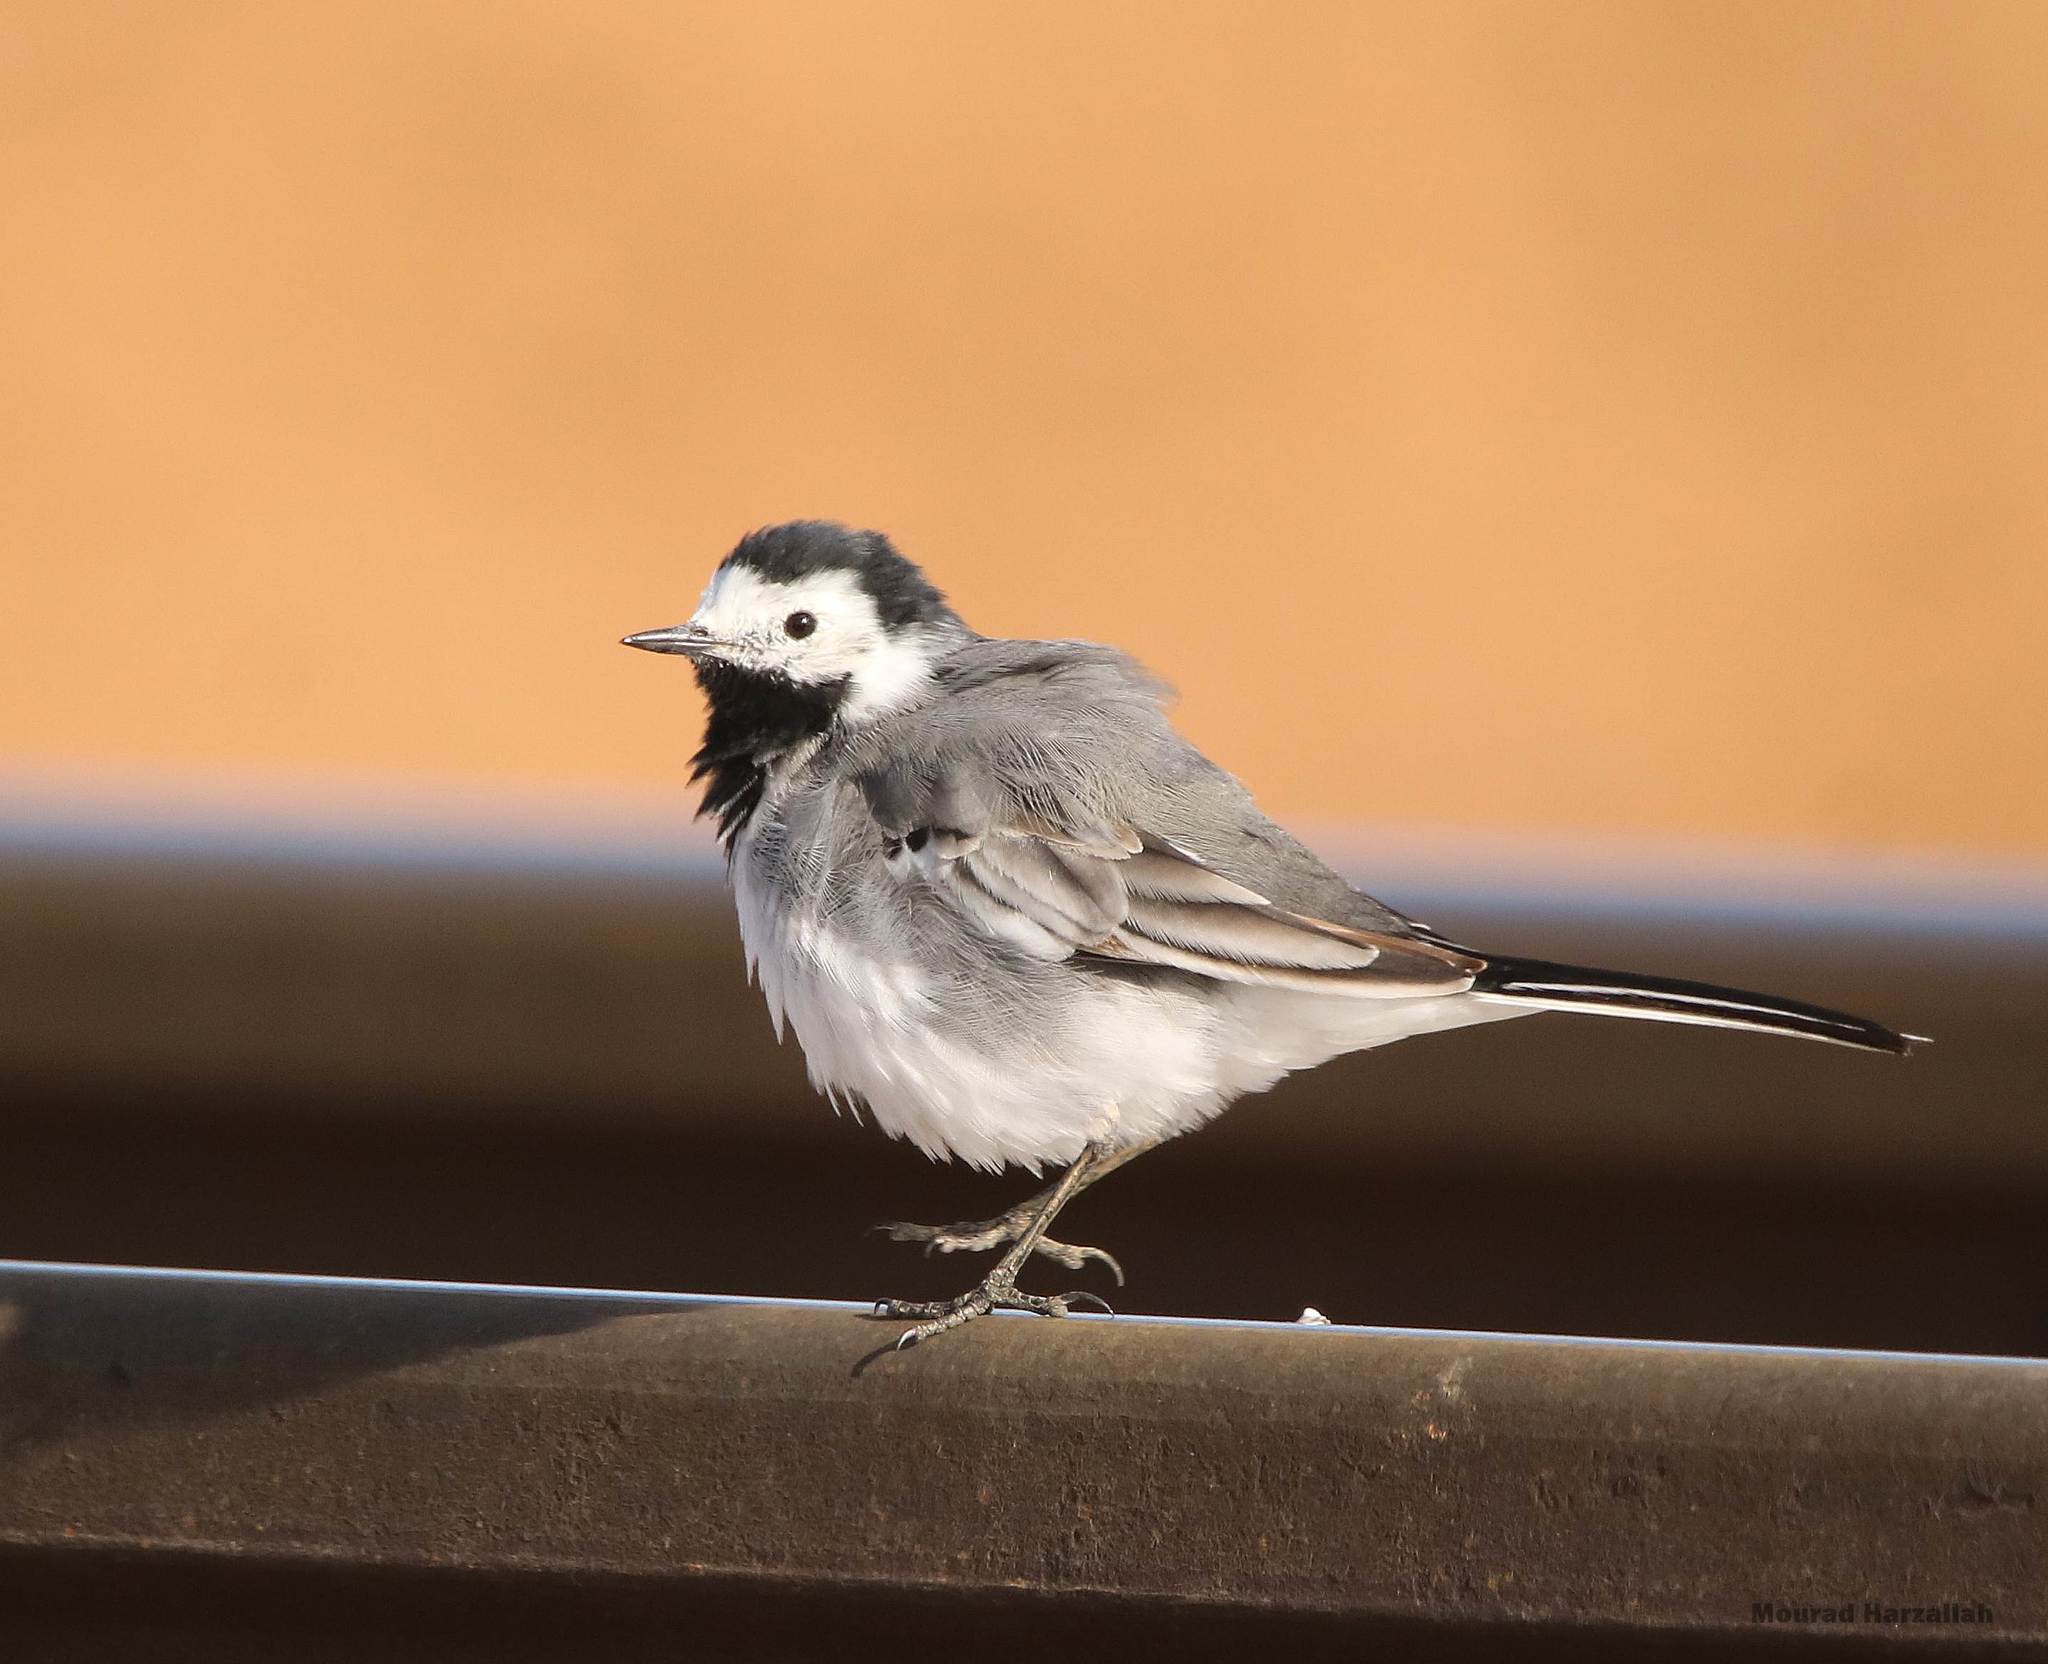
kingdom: Animalia
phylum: Chordata
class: Aves
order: Passeriformes
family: Motacillidae
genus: Motacilla
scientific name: Motacilla alba
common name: White wagtail
